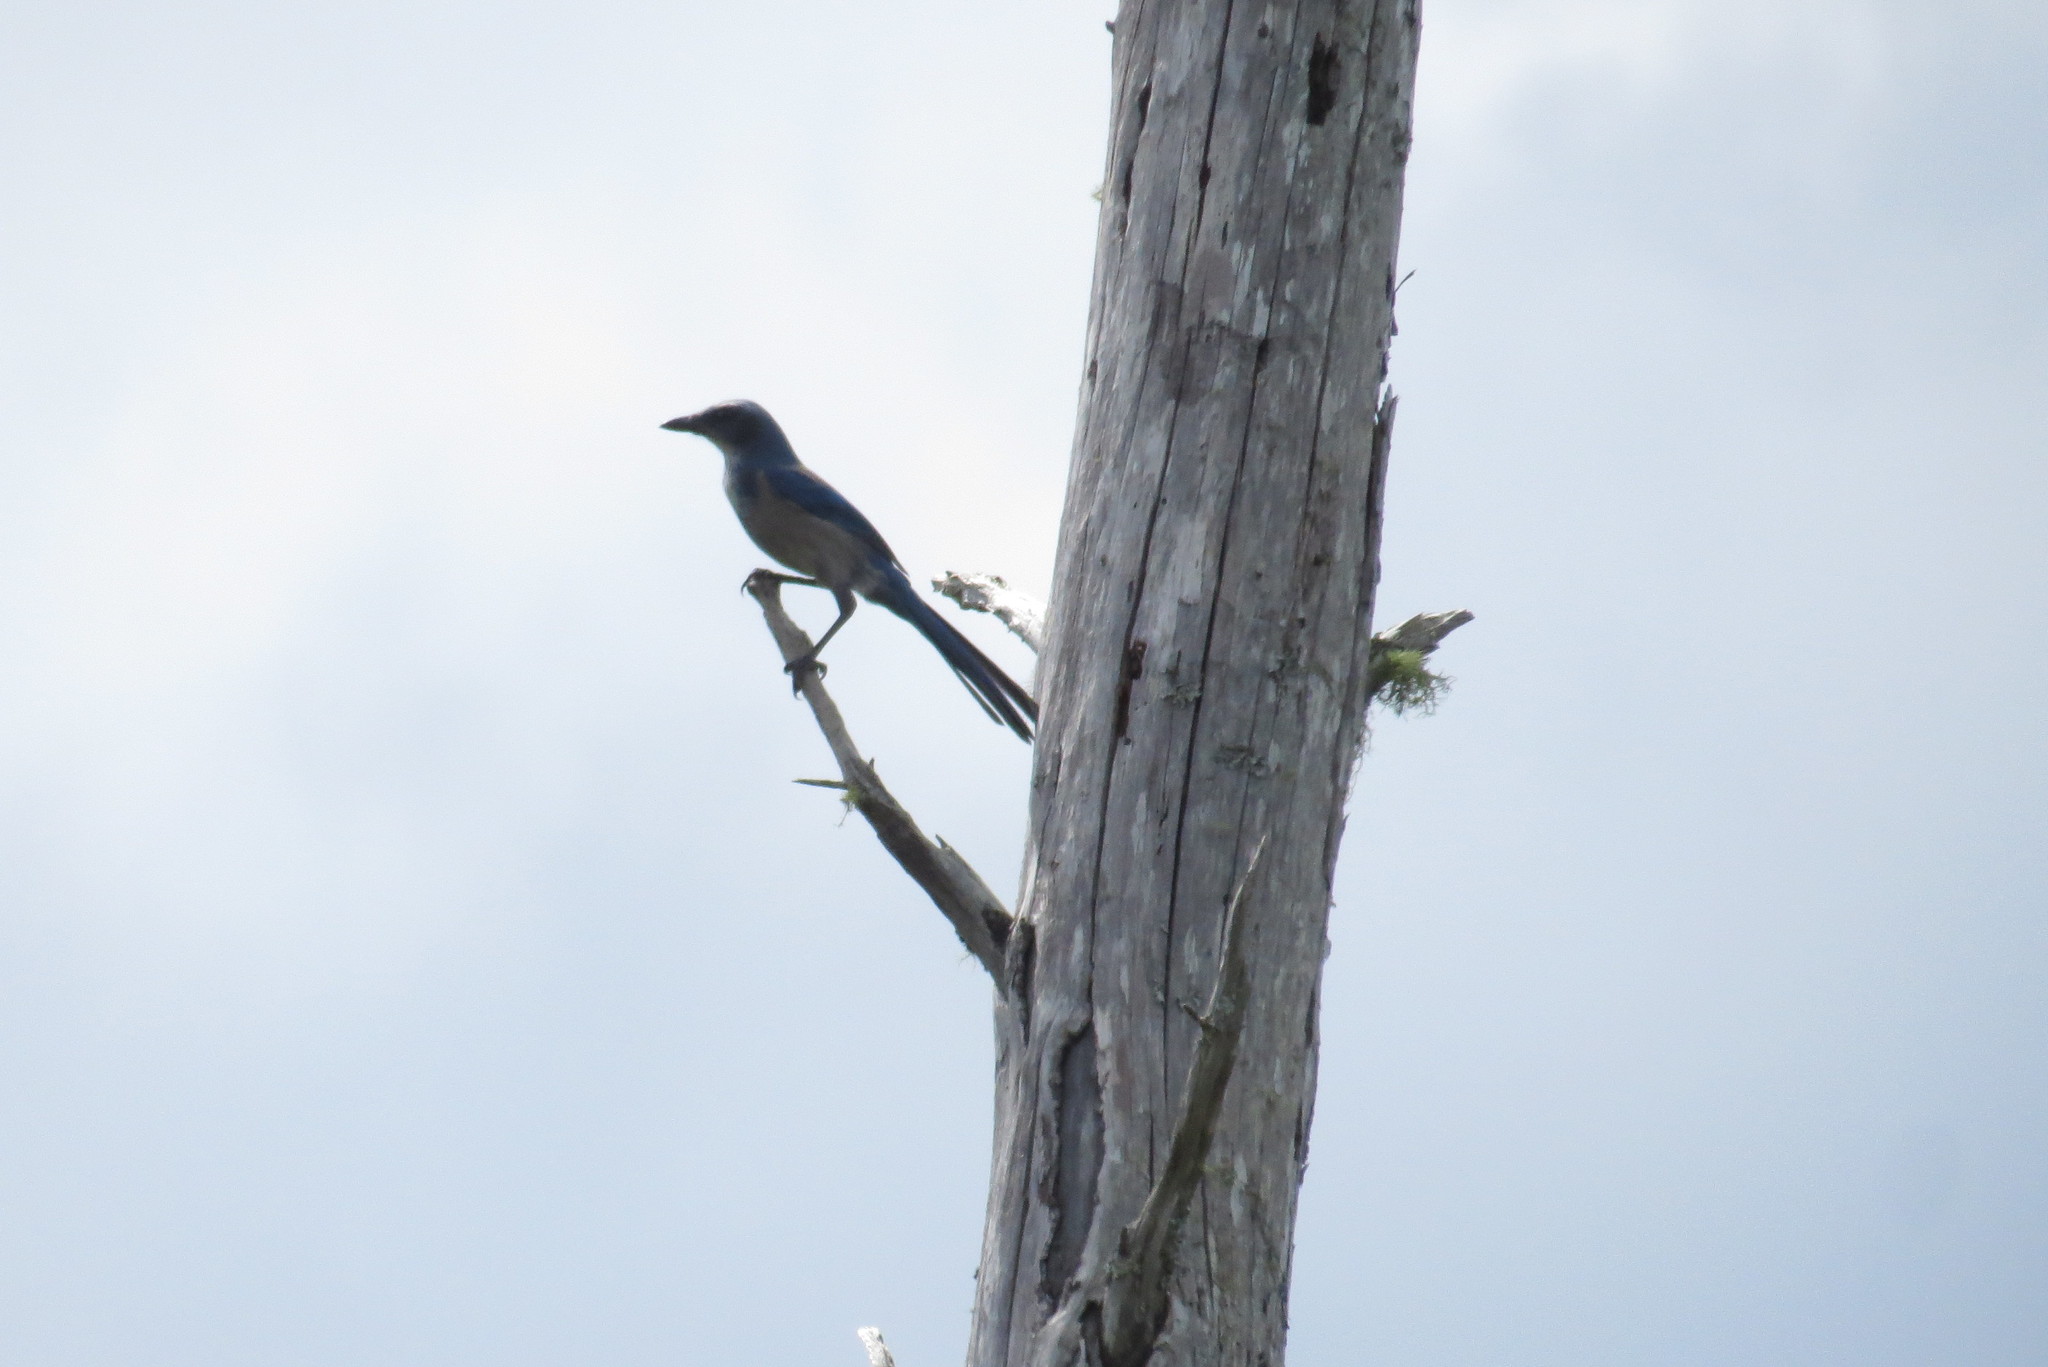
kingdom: Animalia
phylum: Chordata
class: Aves
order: Passeriformes
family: Corvidae
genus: Aphelocoma
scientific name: Aphelocoma coerulescens
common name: Florida scrub jay
